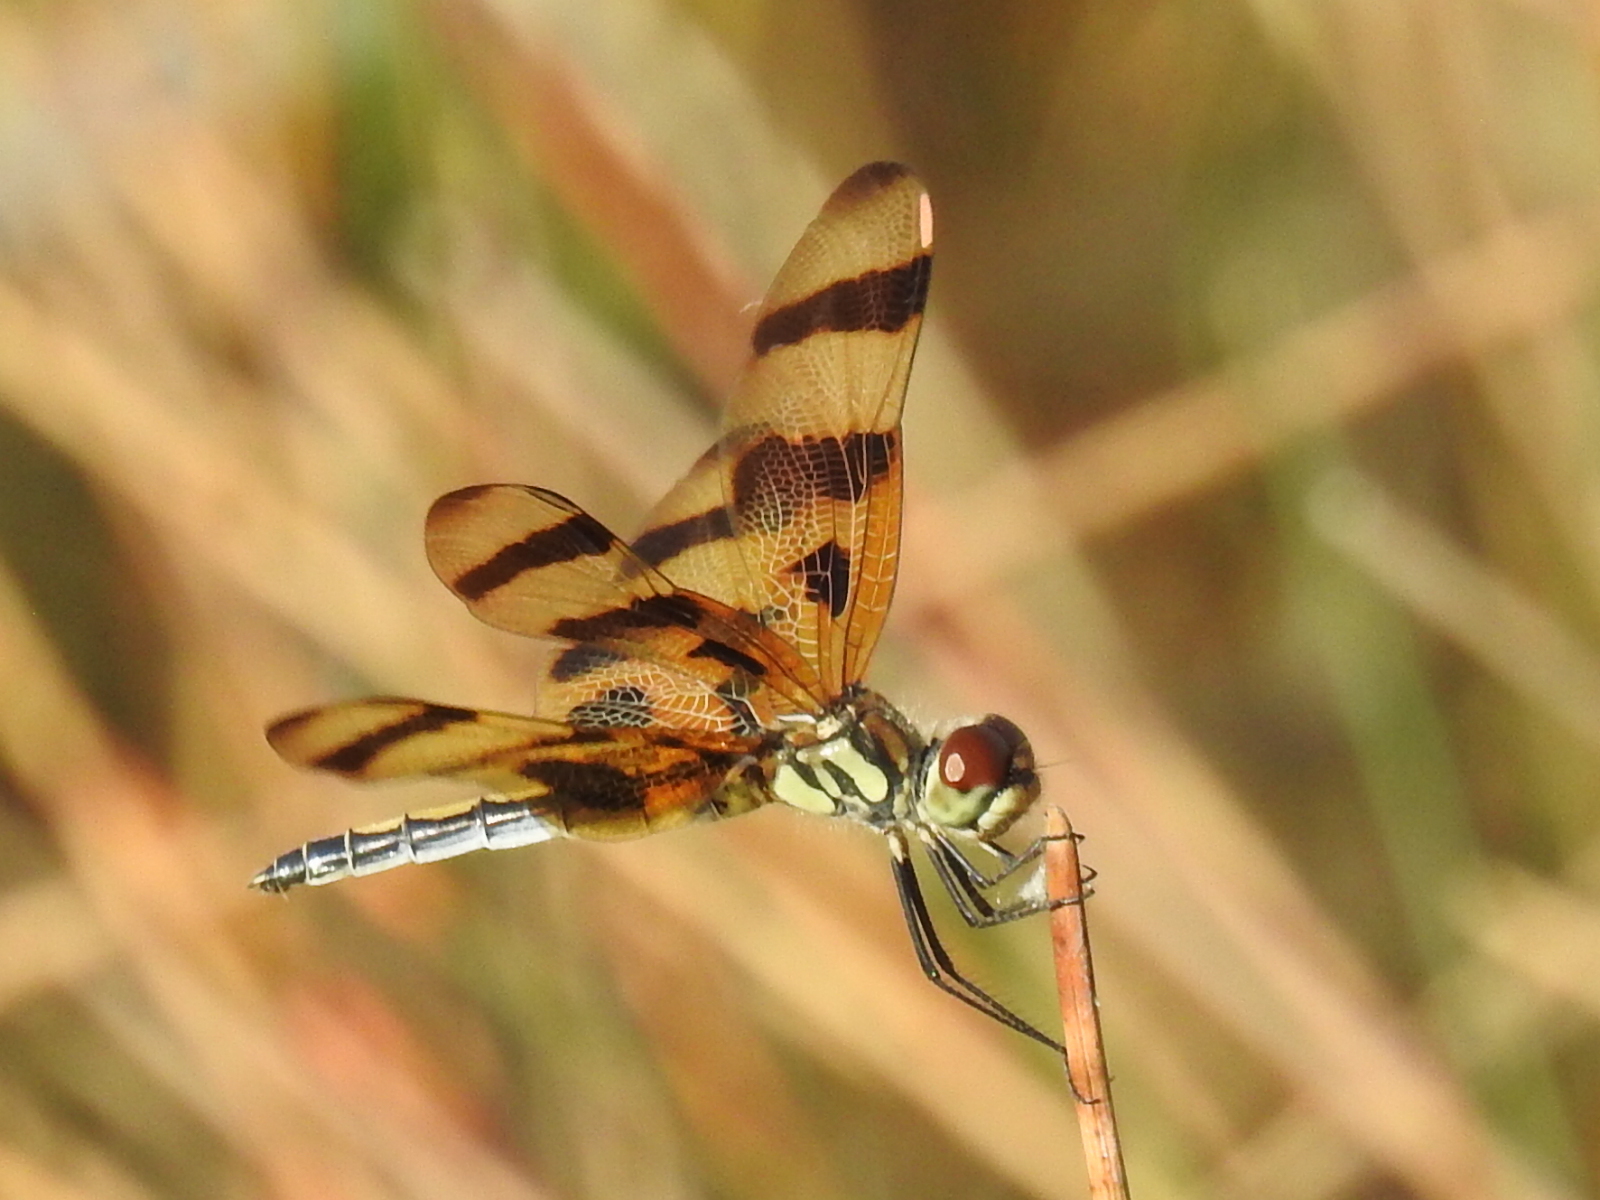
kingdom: Animalia
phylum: Arthropoda
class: Insecta
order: Odonata
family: Libellulidae
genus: Celithemis
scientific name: Celithemis eponina
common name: Halloween pennant
